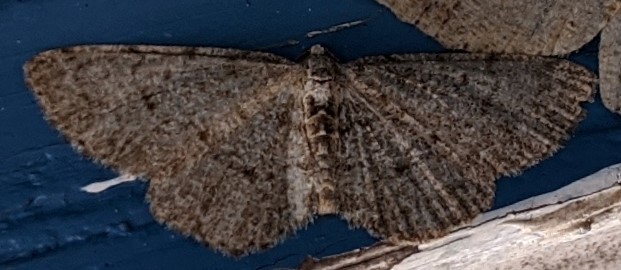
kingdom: Animalia
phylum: Arthropoda
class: Insecta
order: Lepidoptera
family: Geometridae
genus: Aethalura
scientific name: Aethalura intertexta
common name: Four-barred gray
